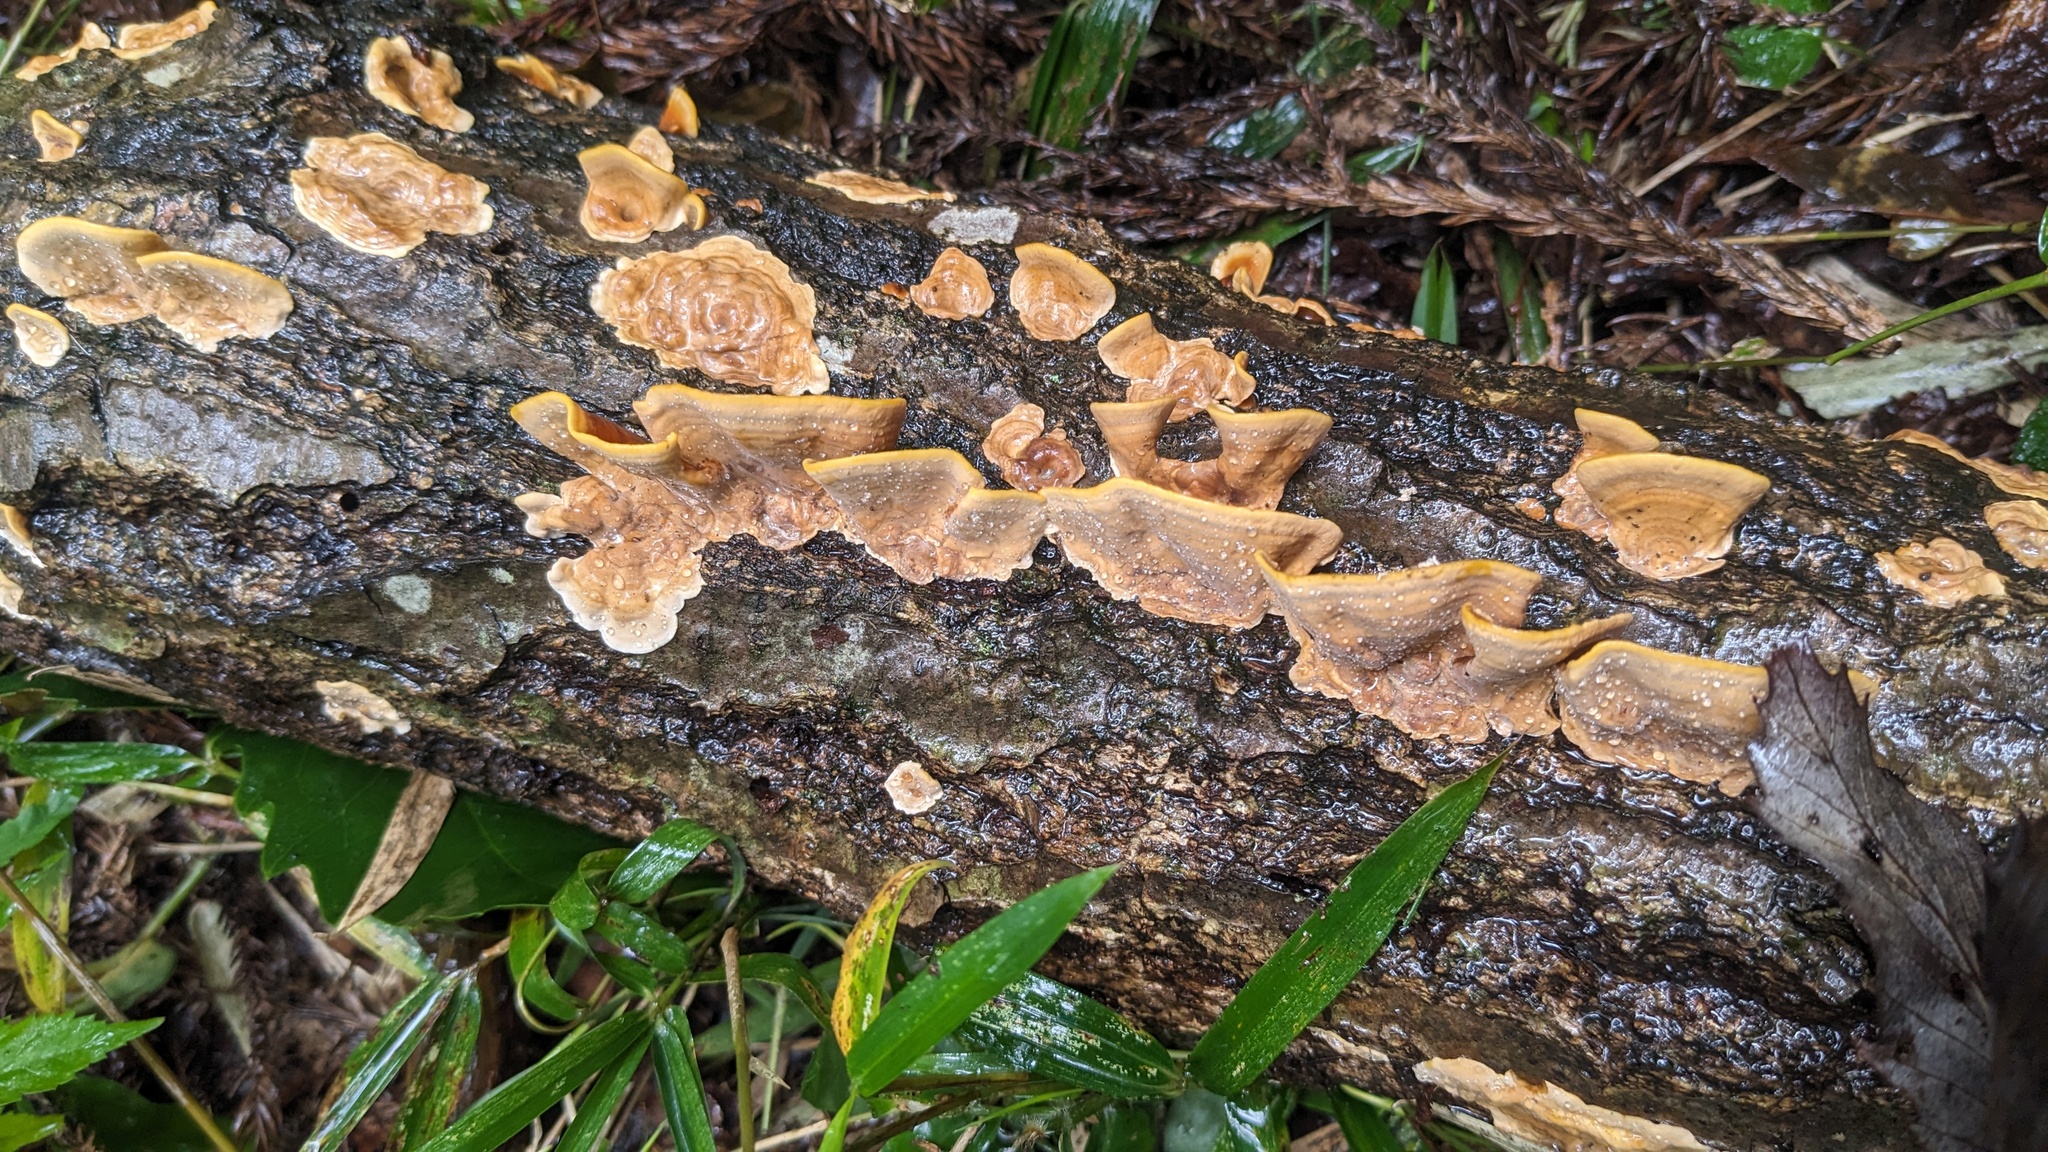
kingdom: Fungi
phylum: Basidiomycota
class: Agaricomycetes
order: Russulales
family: Stereaceae
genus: Stereum
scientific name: Stereum ostrea
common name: False turkeytail
